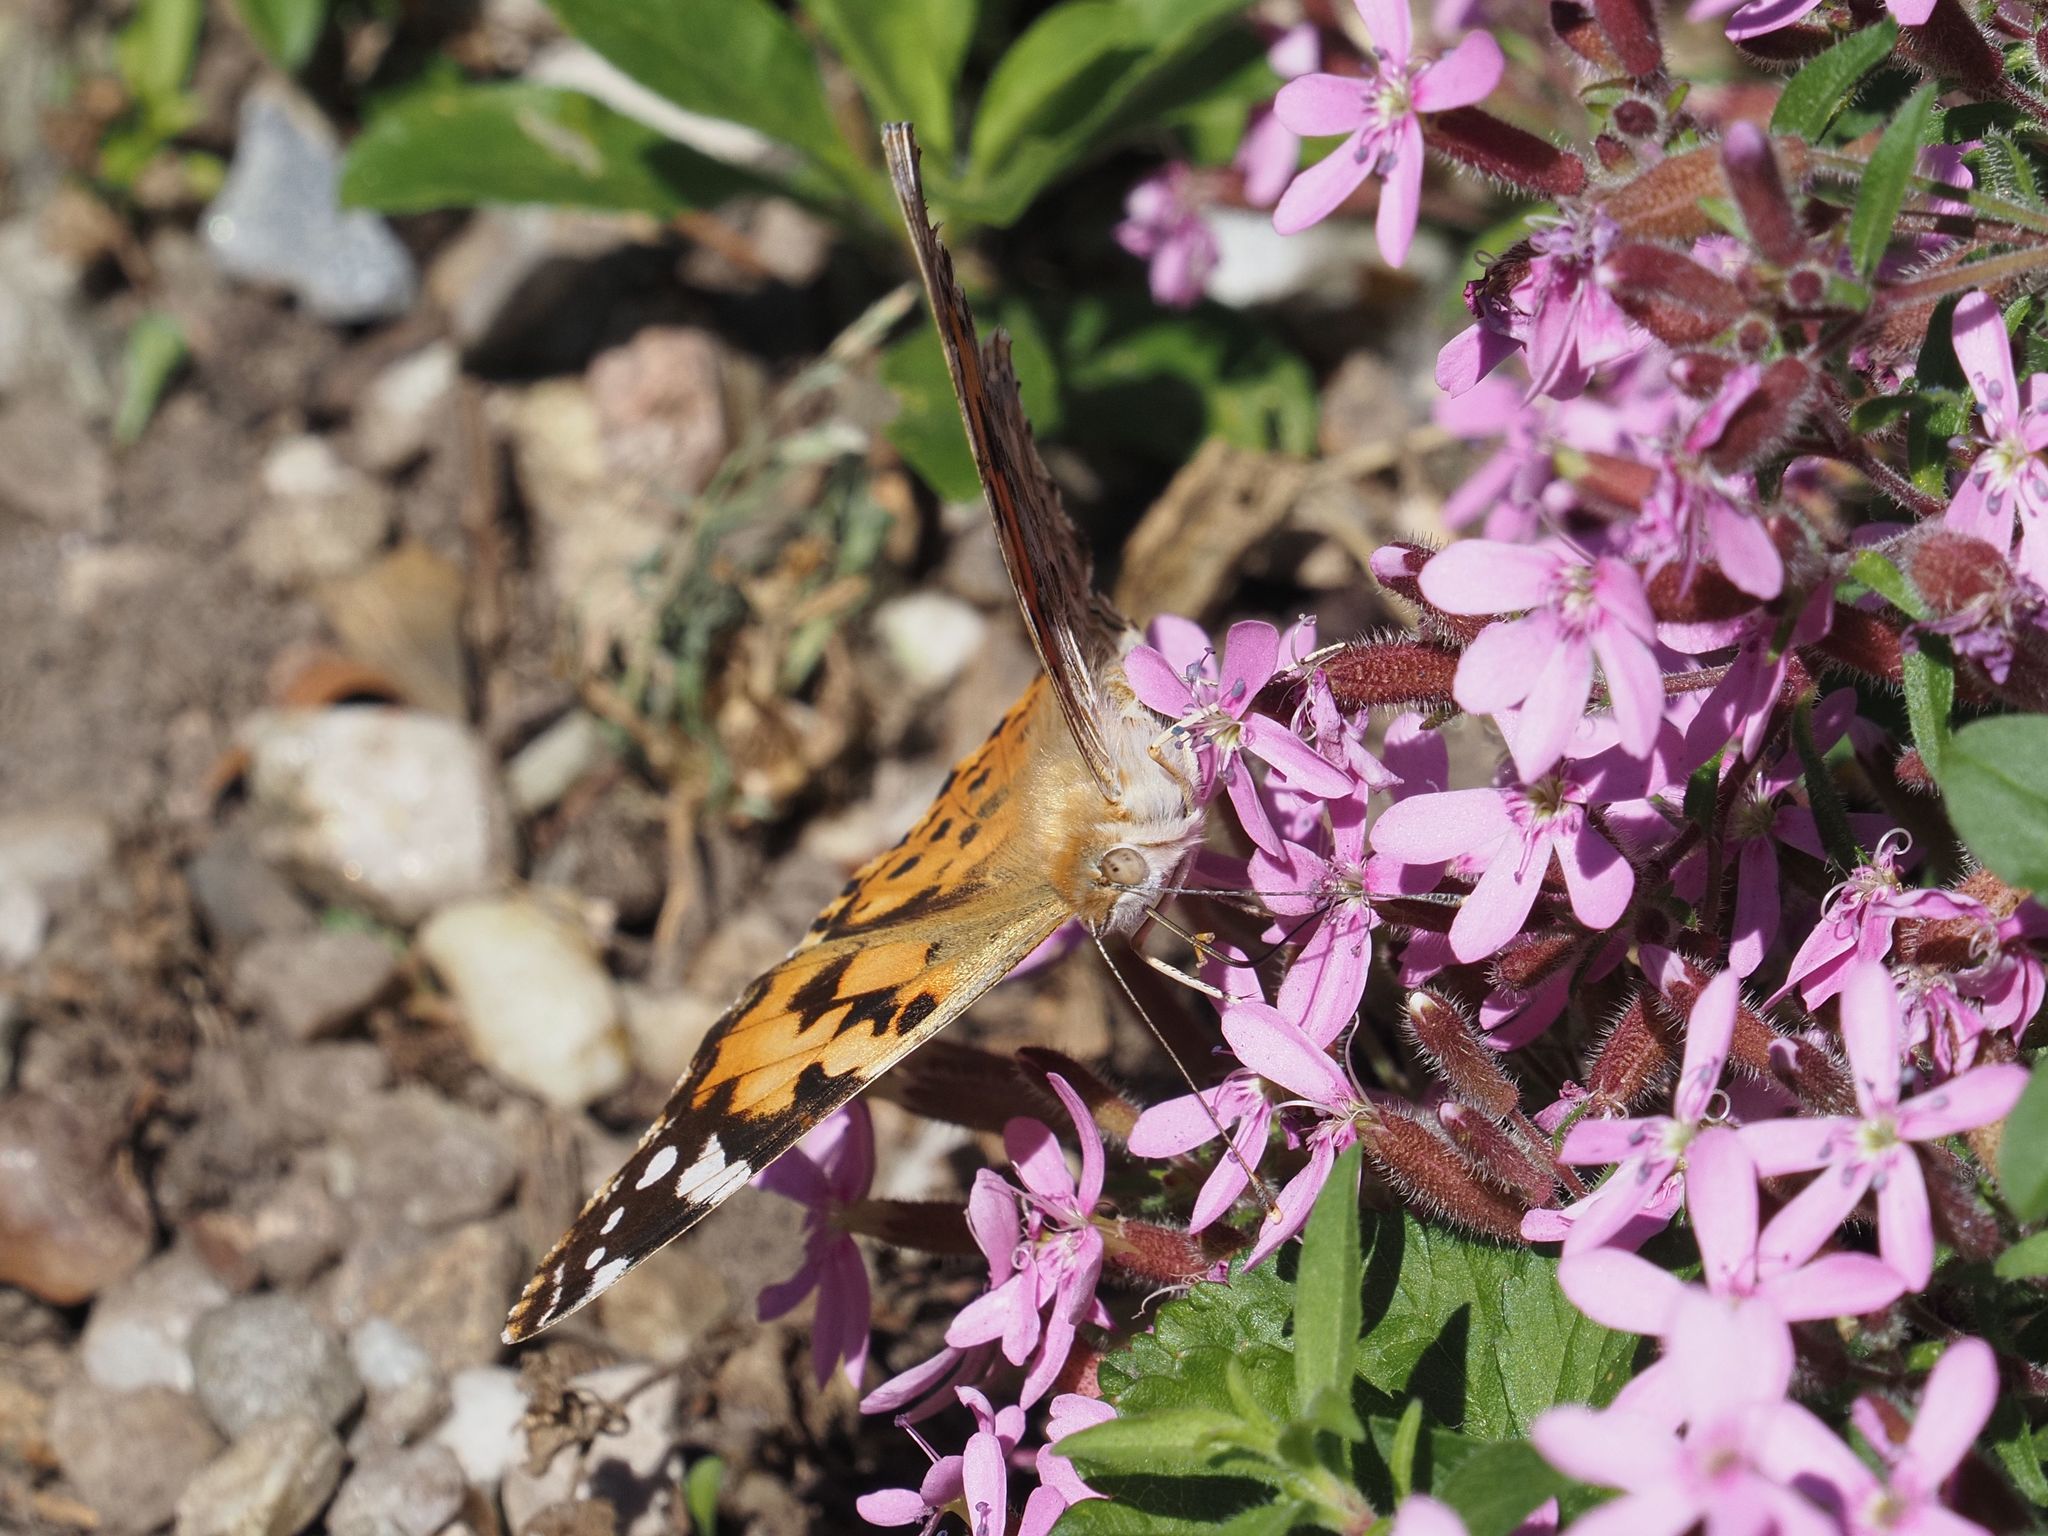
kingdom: Animalia
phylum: Arthropoda
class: Insecta
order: Lepidoptera
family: Nymphalidae
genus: Vanessa
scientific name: Vanessa cardui
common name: Painted lady
